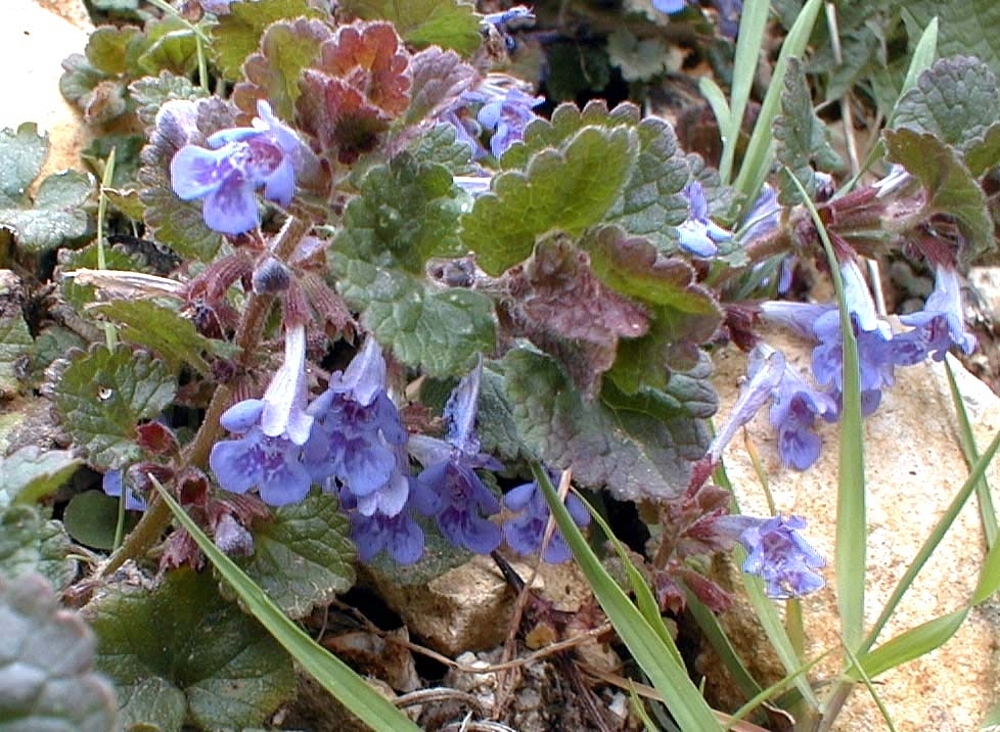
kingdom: Plantae
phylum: Tracheophyta
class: Magnoliopsida
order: Lamiales
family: Lamiaceae
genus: Glechoma
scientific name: Glechoma hederacea
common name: Ground ivy
